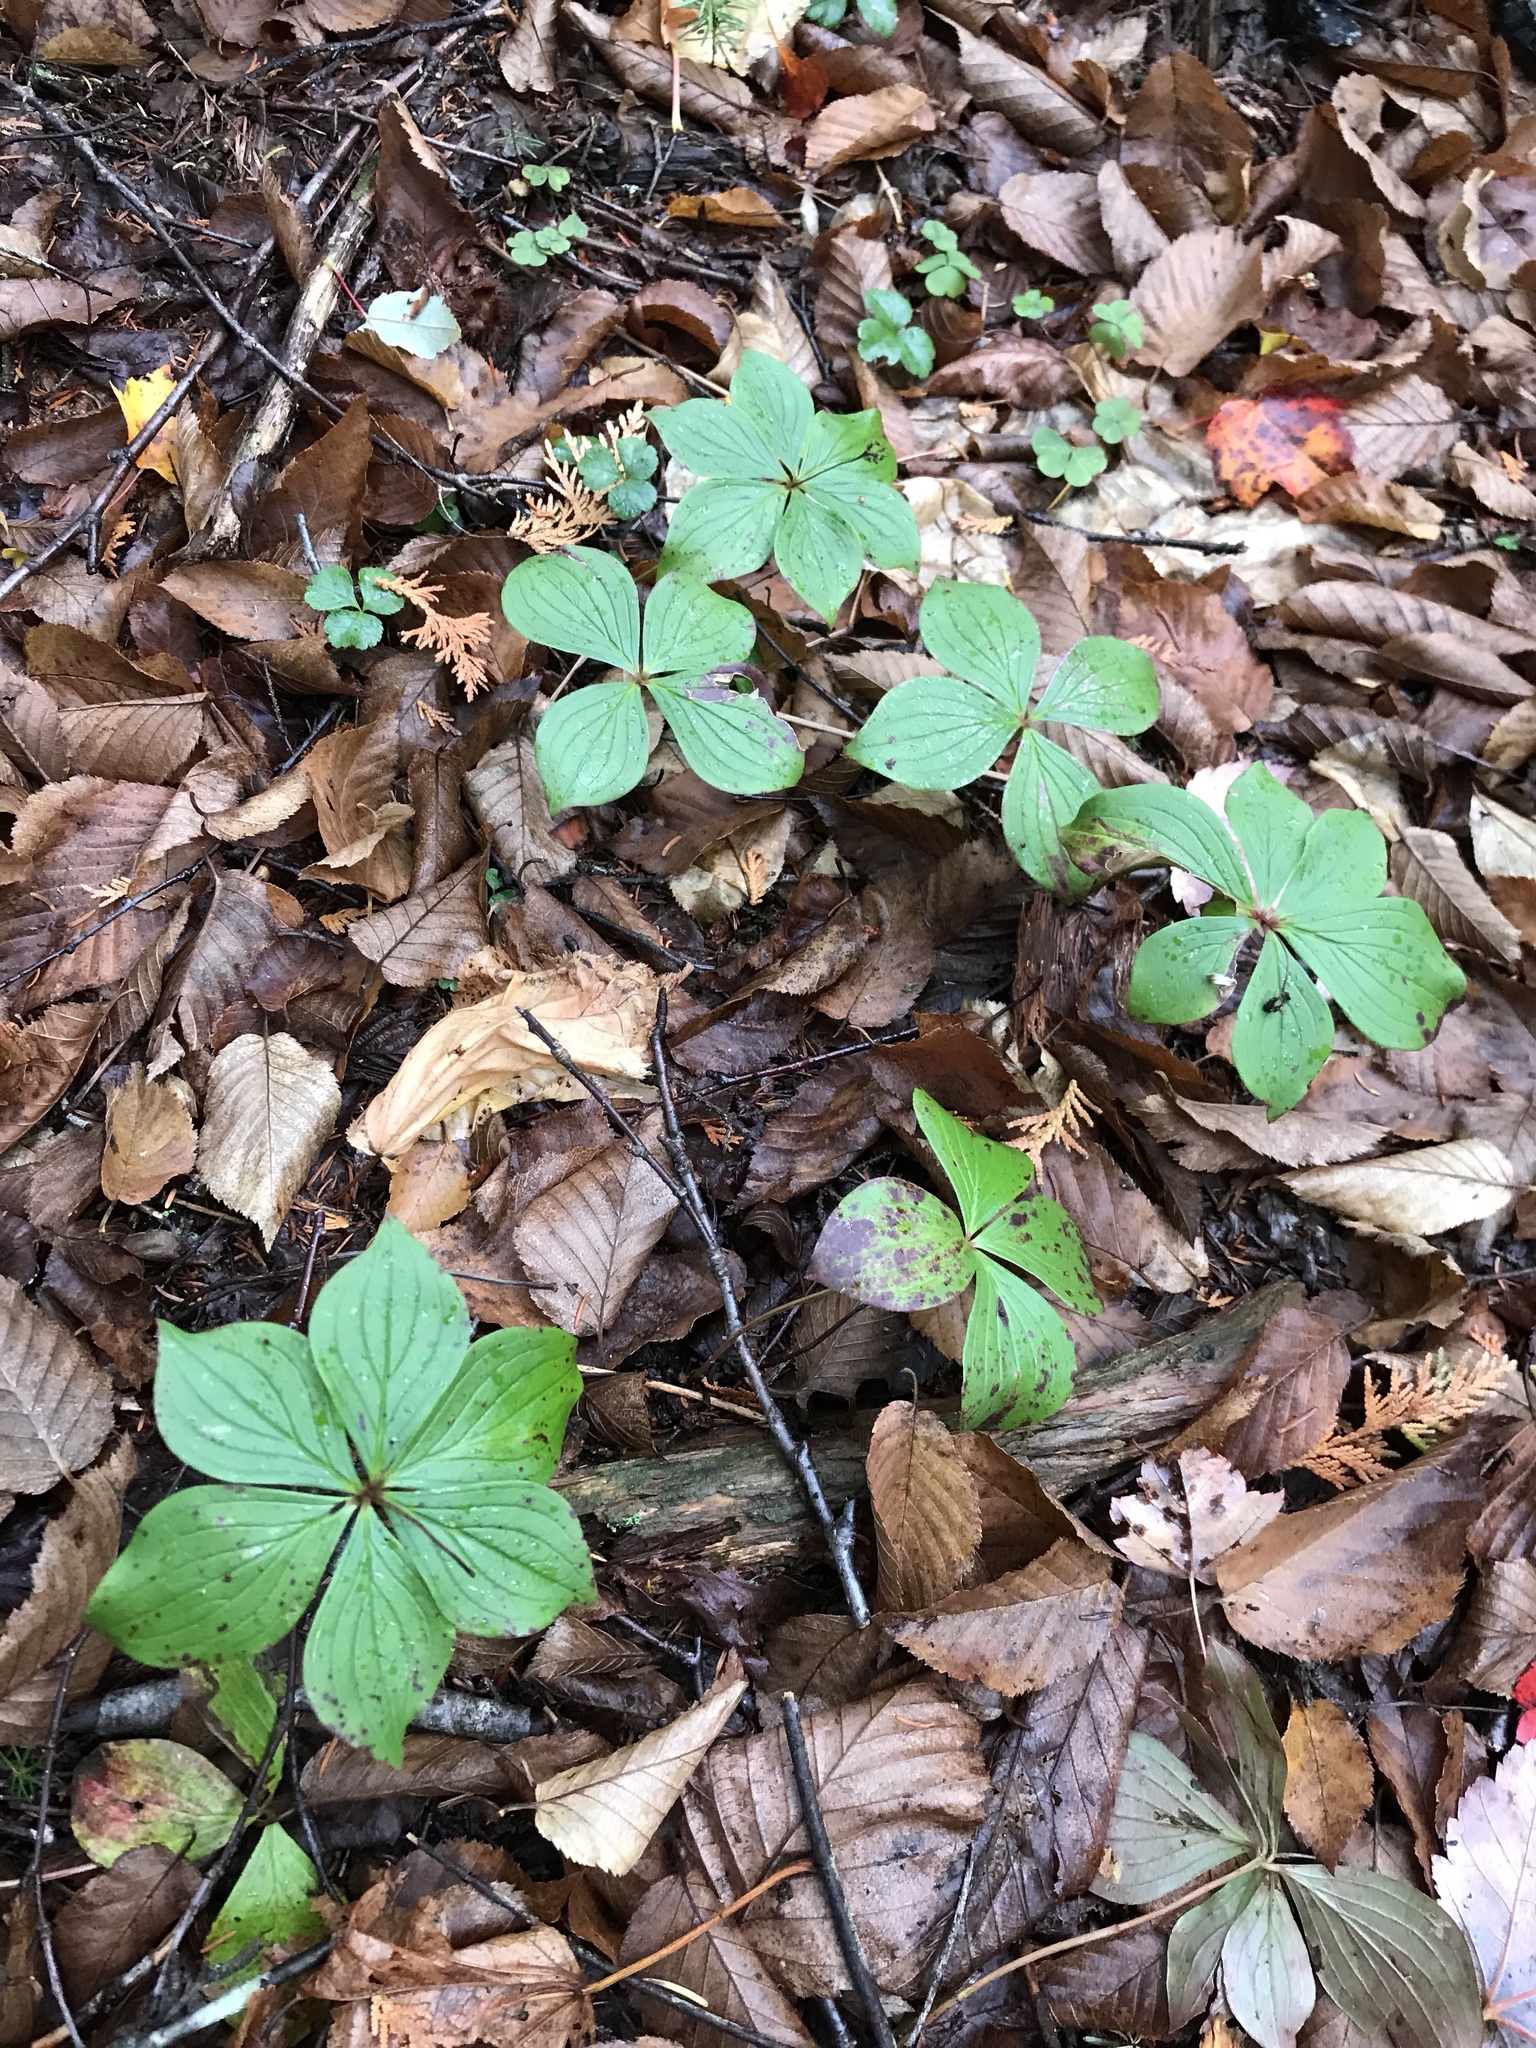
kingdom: Plantae
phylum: Tracheophyta
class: Magnoliopsida
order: Cornales
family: Cornaceae
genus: Cornus
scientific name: Cornus canadensis
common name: Creeping dogwood
